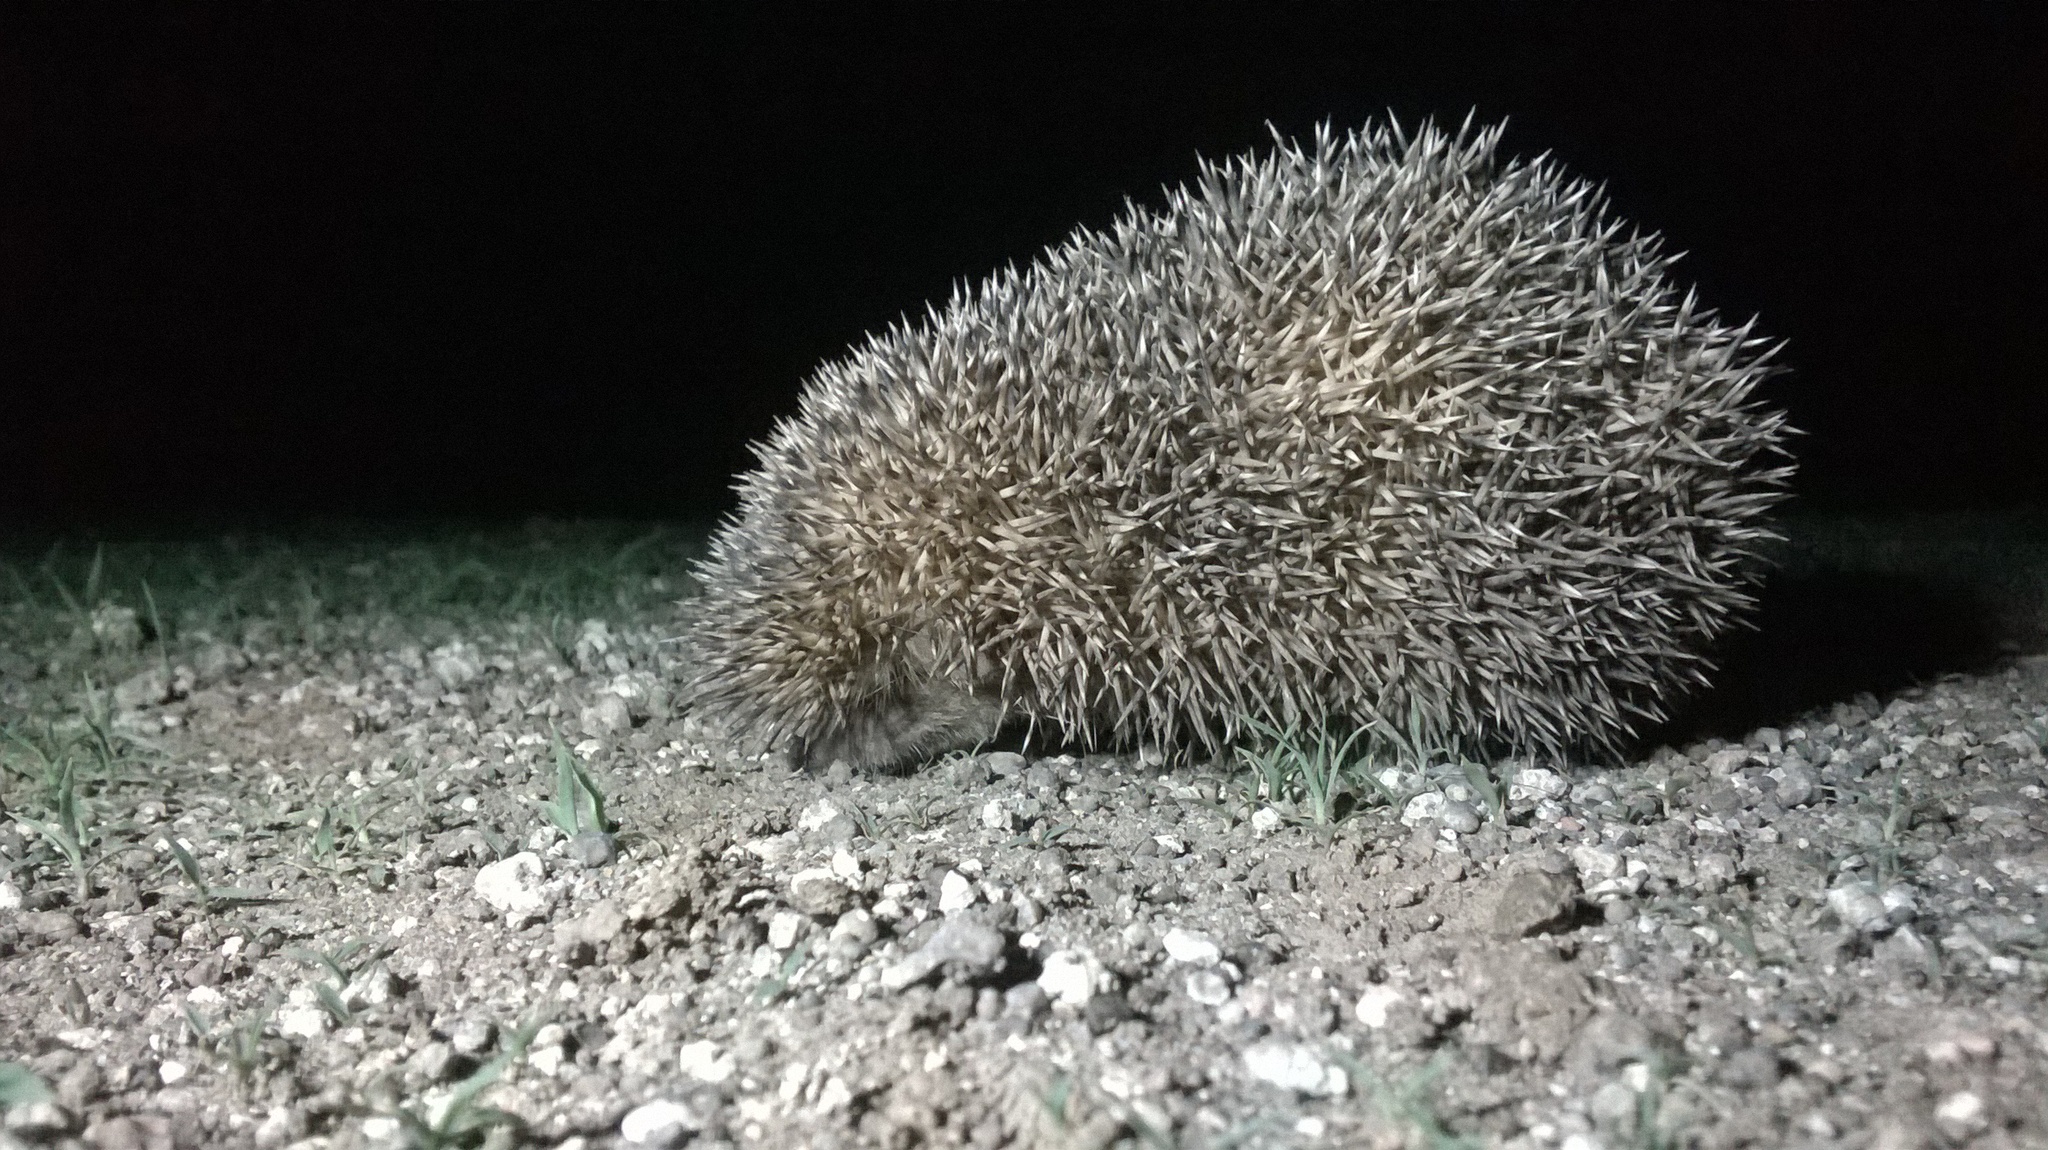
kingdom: Animalia
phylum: Chordata
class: Mammalia
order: Erinaceomorpha
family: Erinaceidae
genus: Hemiechinus
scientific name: Hemiechinus collaris
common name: Indian long-eared hedgehog
